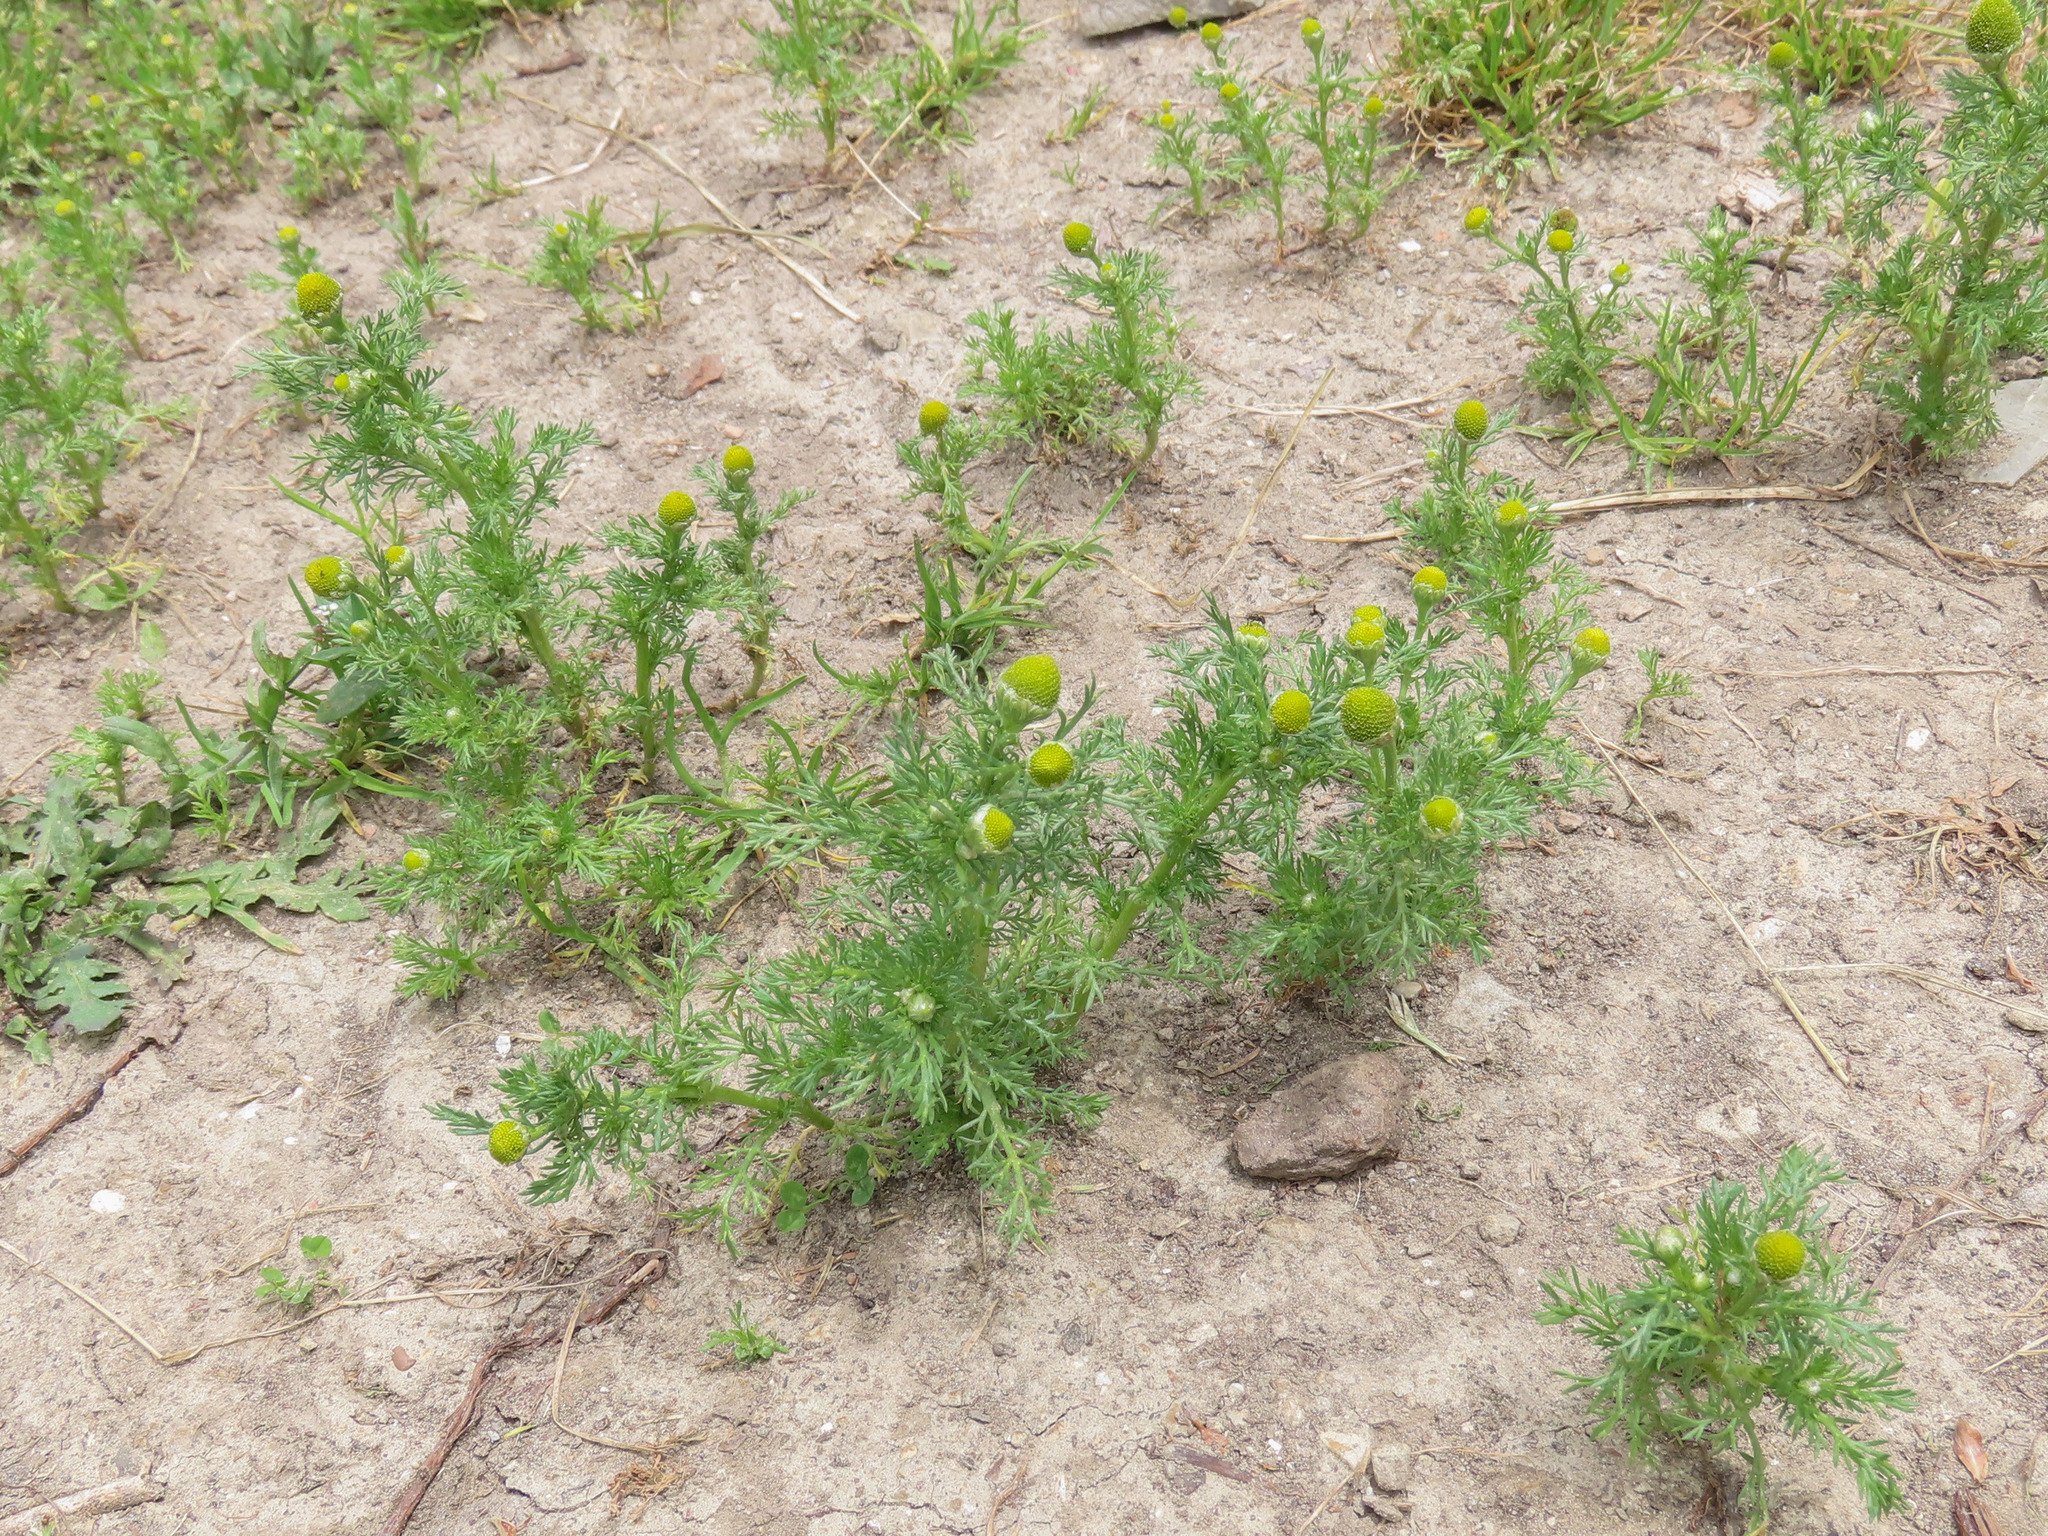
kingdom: Plantae
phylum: Tracheophyta
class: Magnoliopsida
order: Asterales
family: Asteraceae
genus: Matricaria
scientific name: Matricaria discoidea
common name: Disc mayweed
